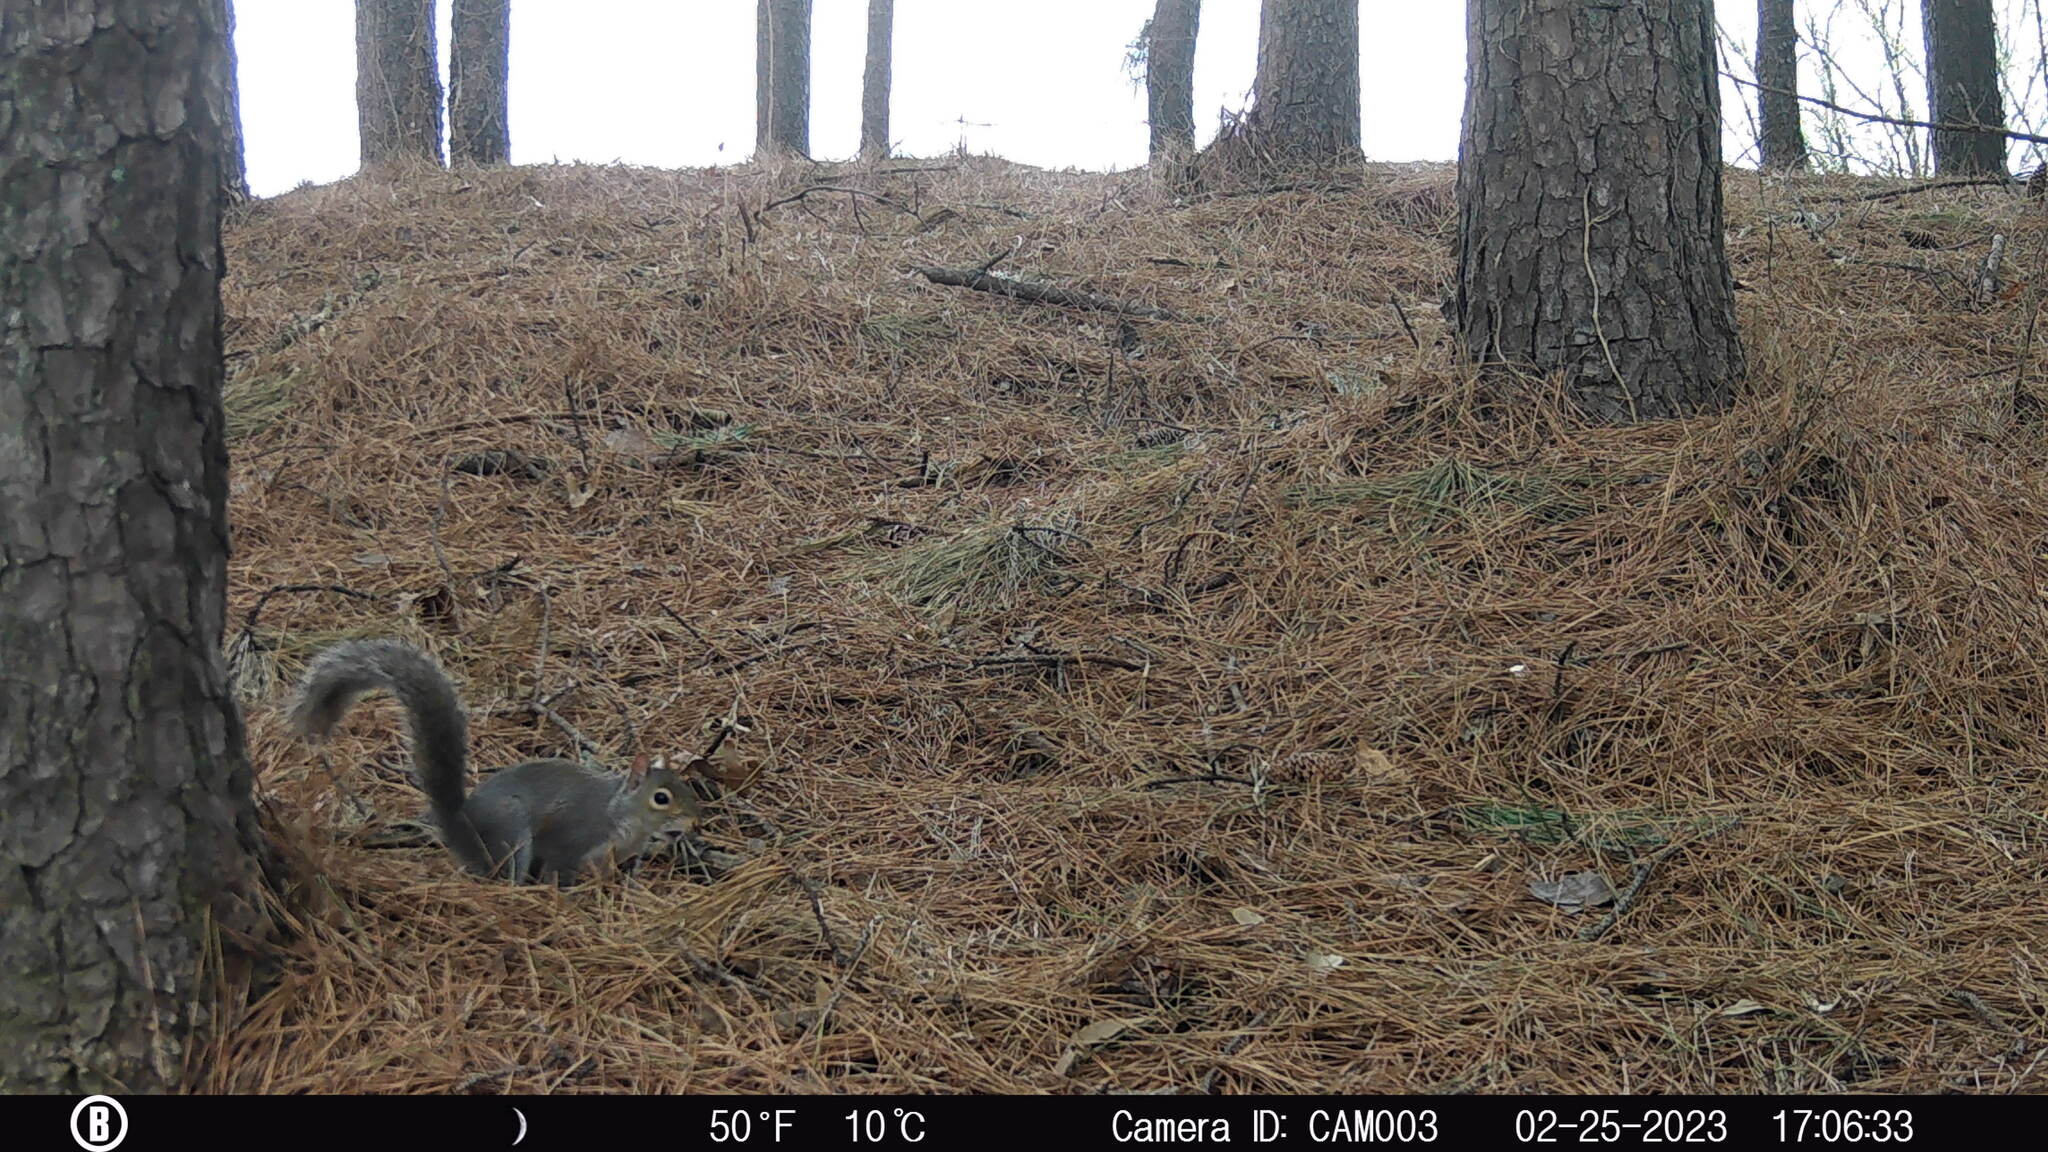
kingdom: Animalia
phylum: Chordata
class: Mammalia
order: Rodentia
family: Sciuridae
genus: Sciurus
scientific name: Sciurus carolinensis
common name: Eastern gray squirrel
